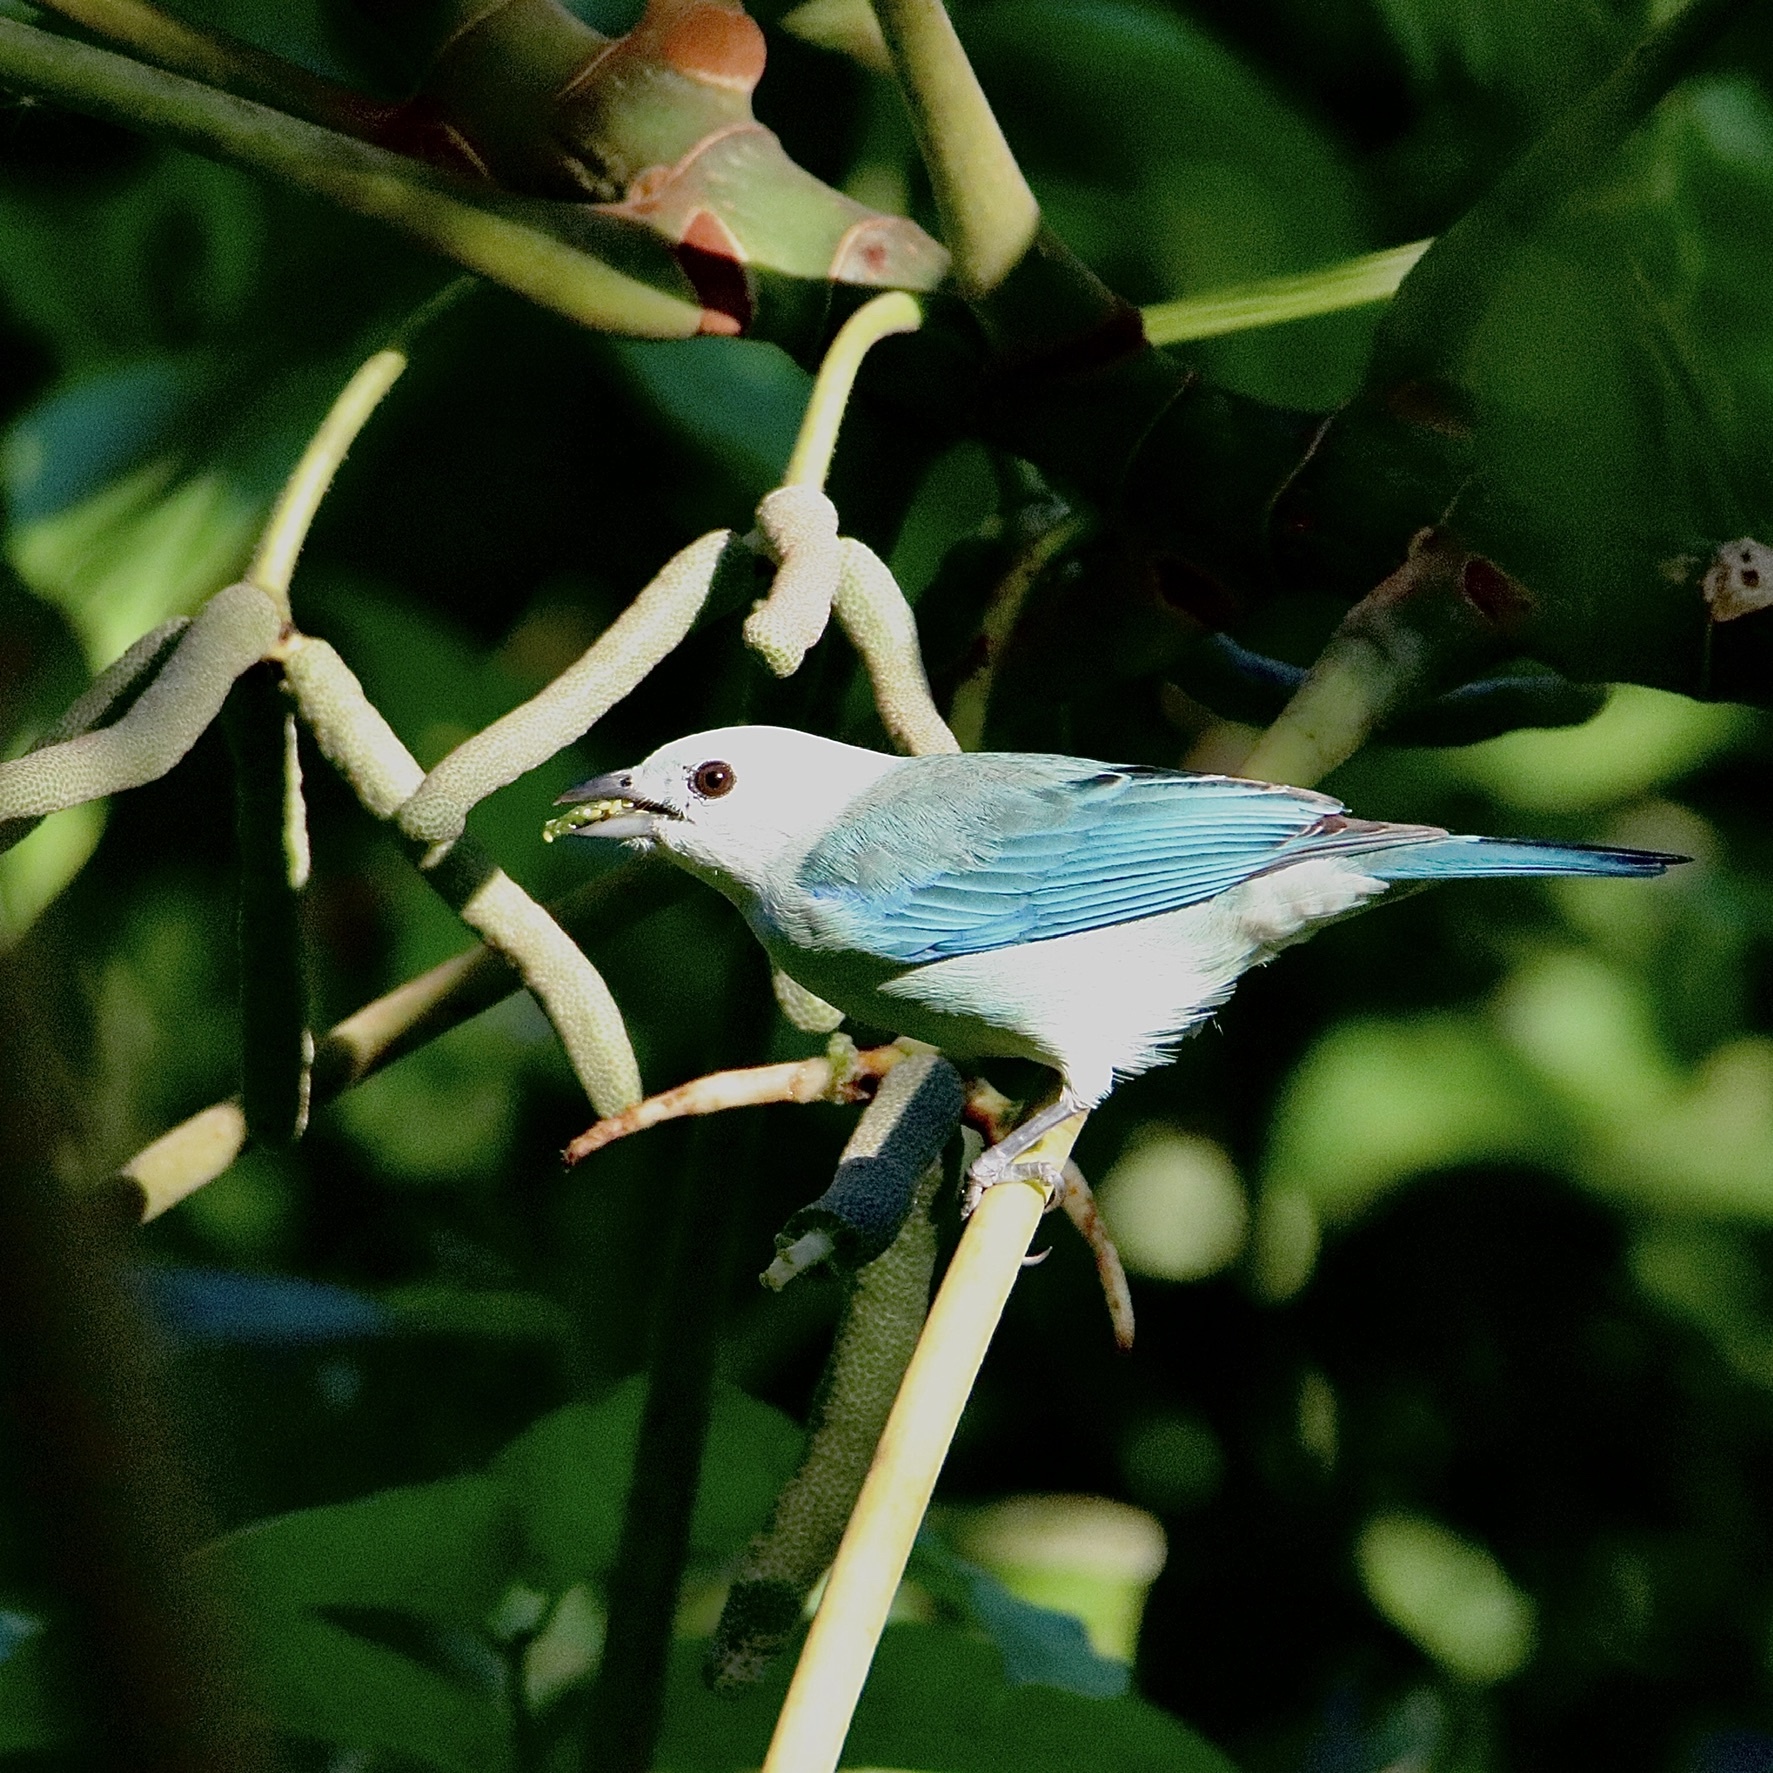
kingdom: Animalia
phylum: Chordata
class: Aves
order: Passeriformes
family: Thraupidae
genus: Thraupis
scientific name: Thraupis episcopus
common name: Blue-grey tanager
